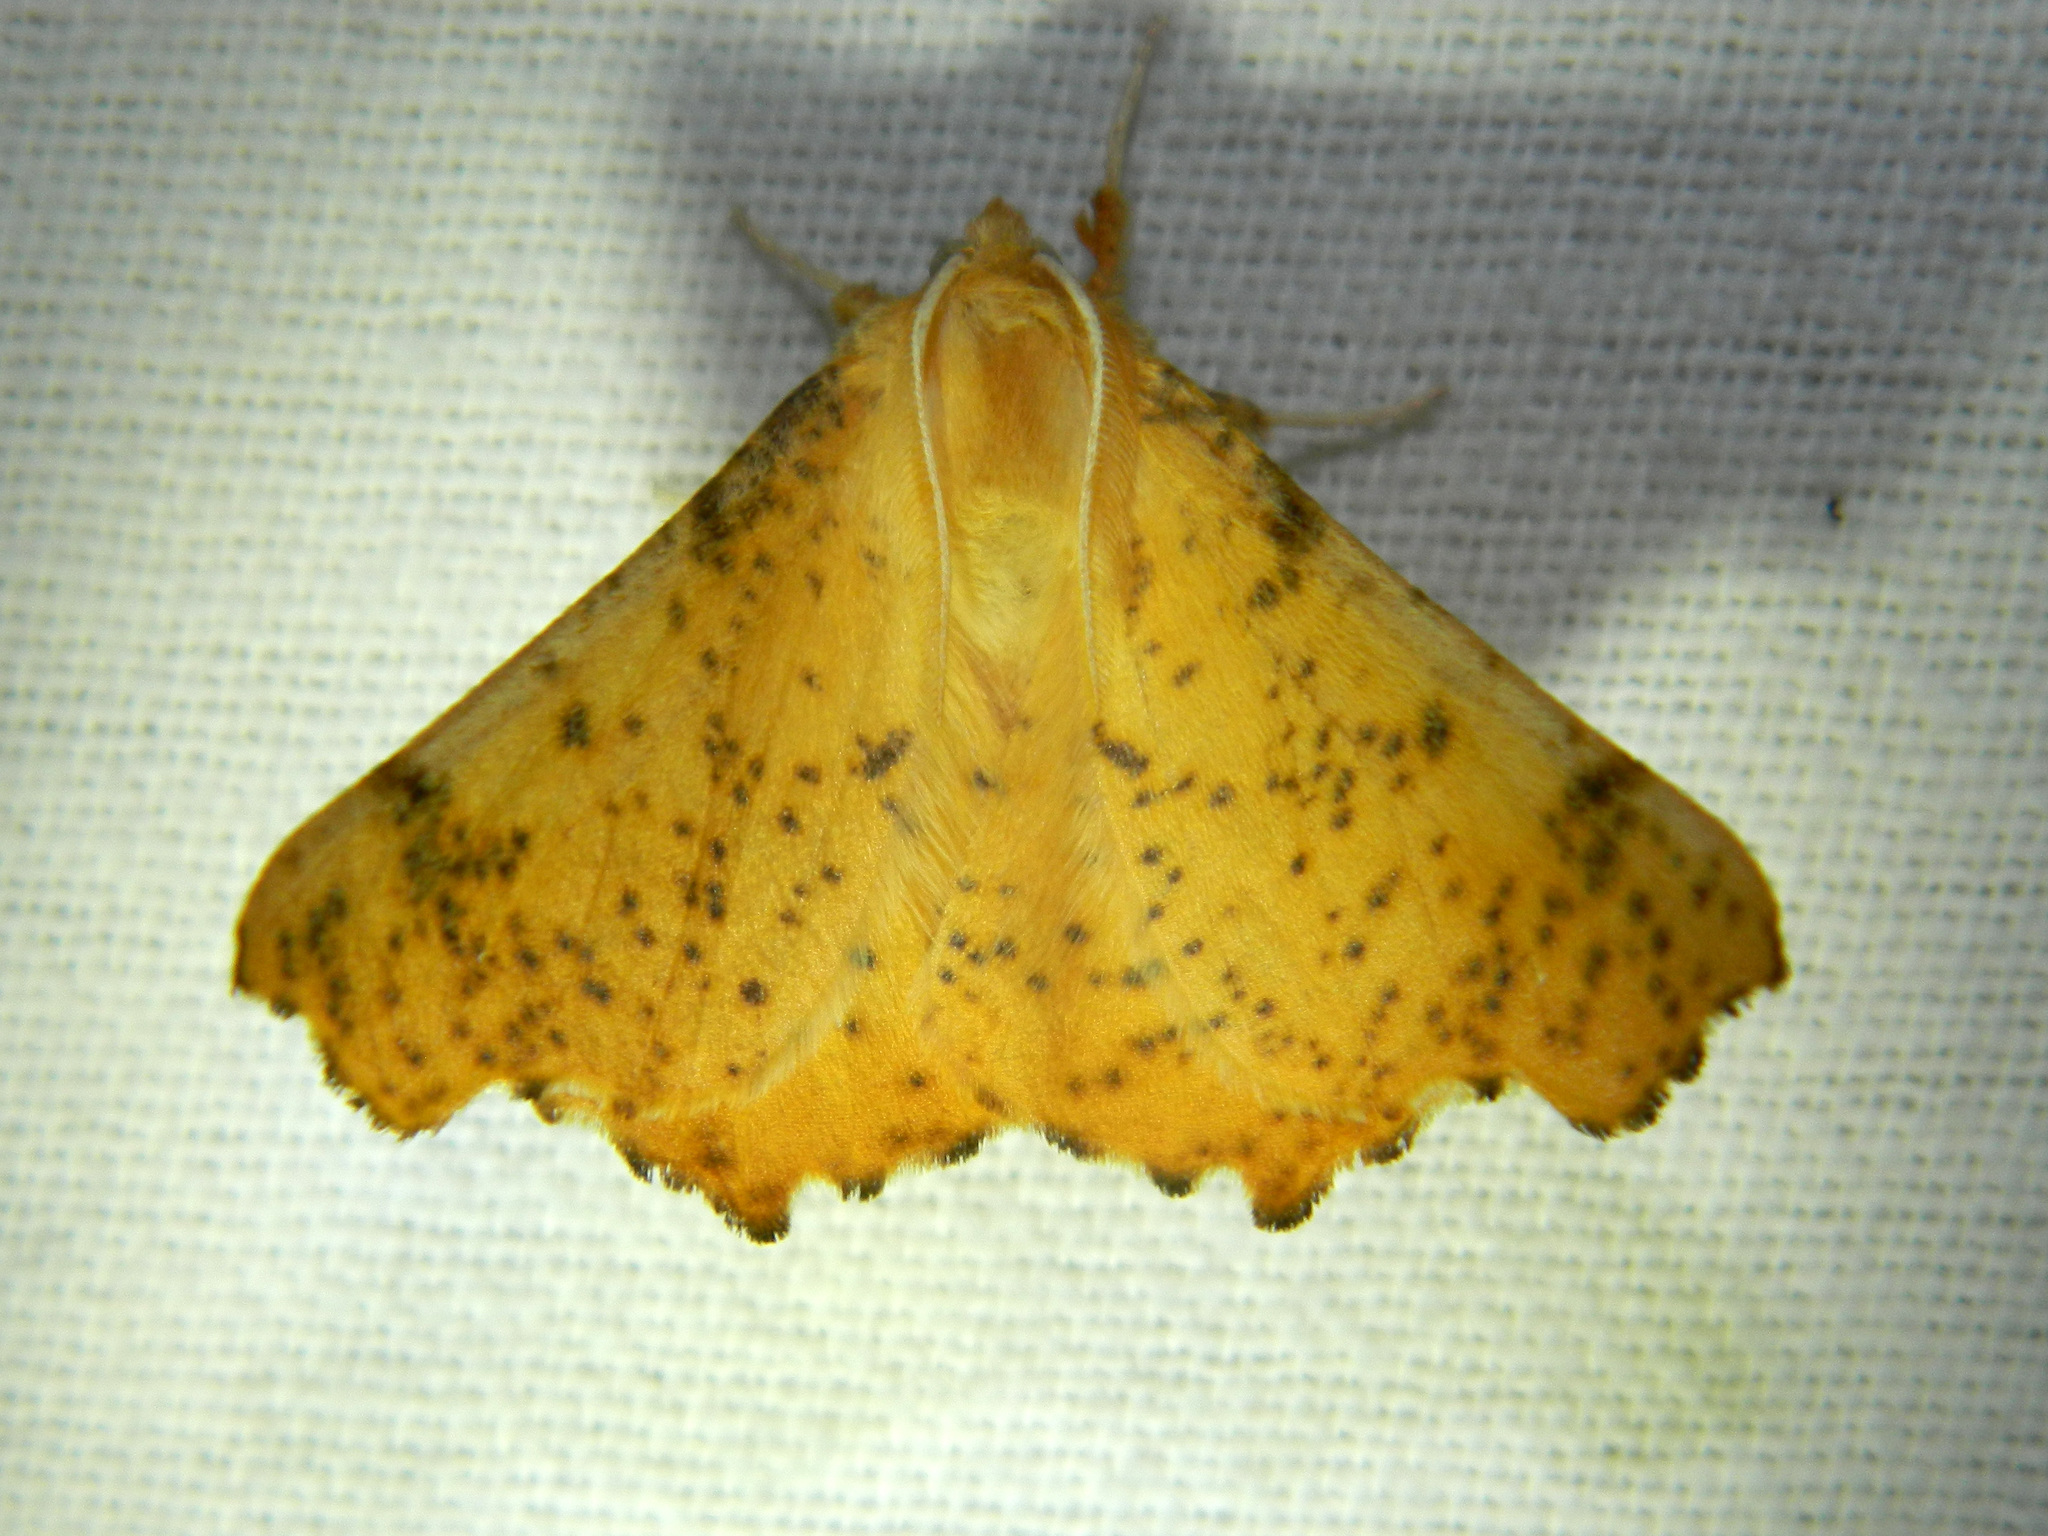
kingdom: Animalia
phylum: Arthropoda
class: Insecta
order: Lepidoptera
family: Geometridae
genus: Ennomos
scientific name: Ennomos magnaria
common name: Maple spanworm
